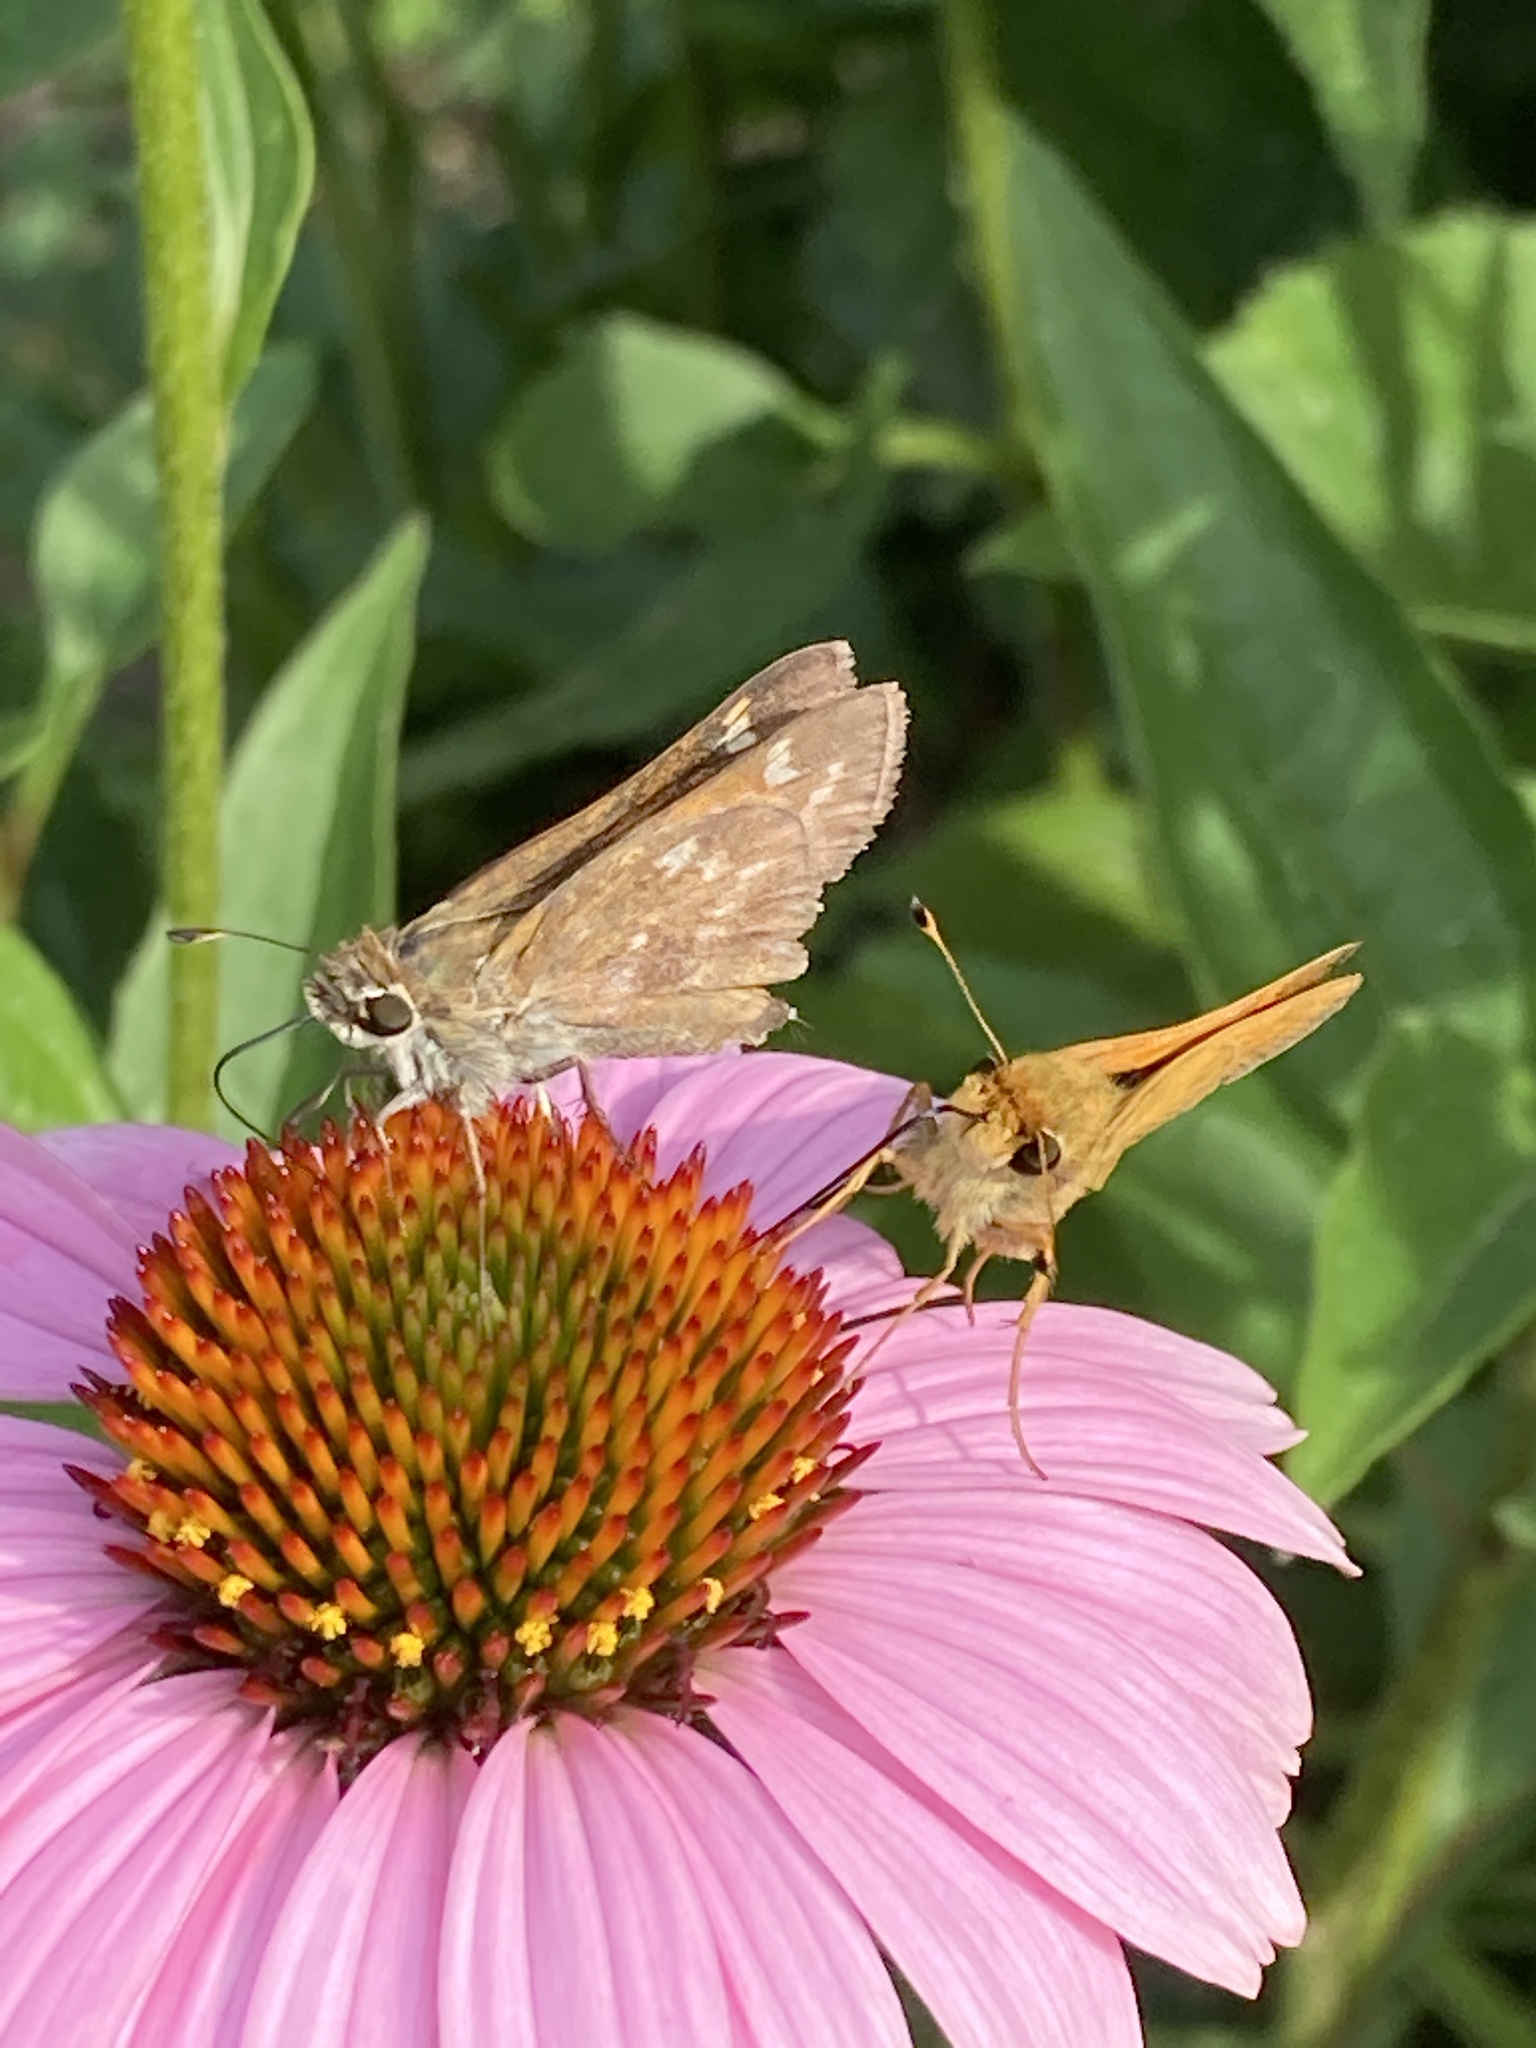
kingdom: Animalia
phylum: Arthropoda
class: Insecta
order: Lepidoptera
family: Hesperiidae
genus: Atalopedes
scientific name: Atalopedes
